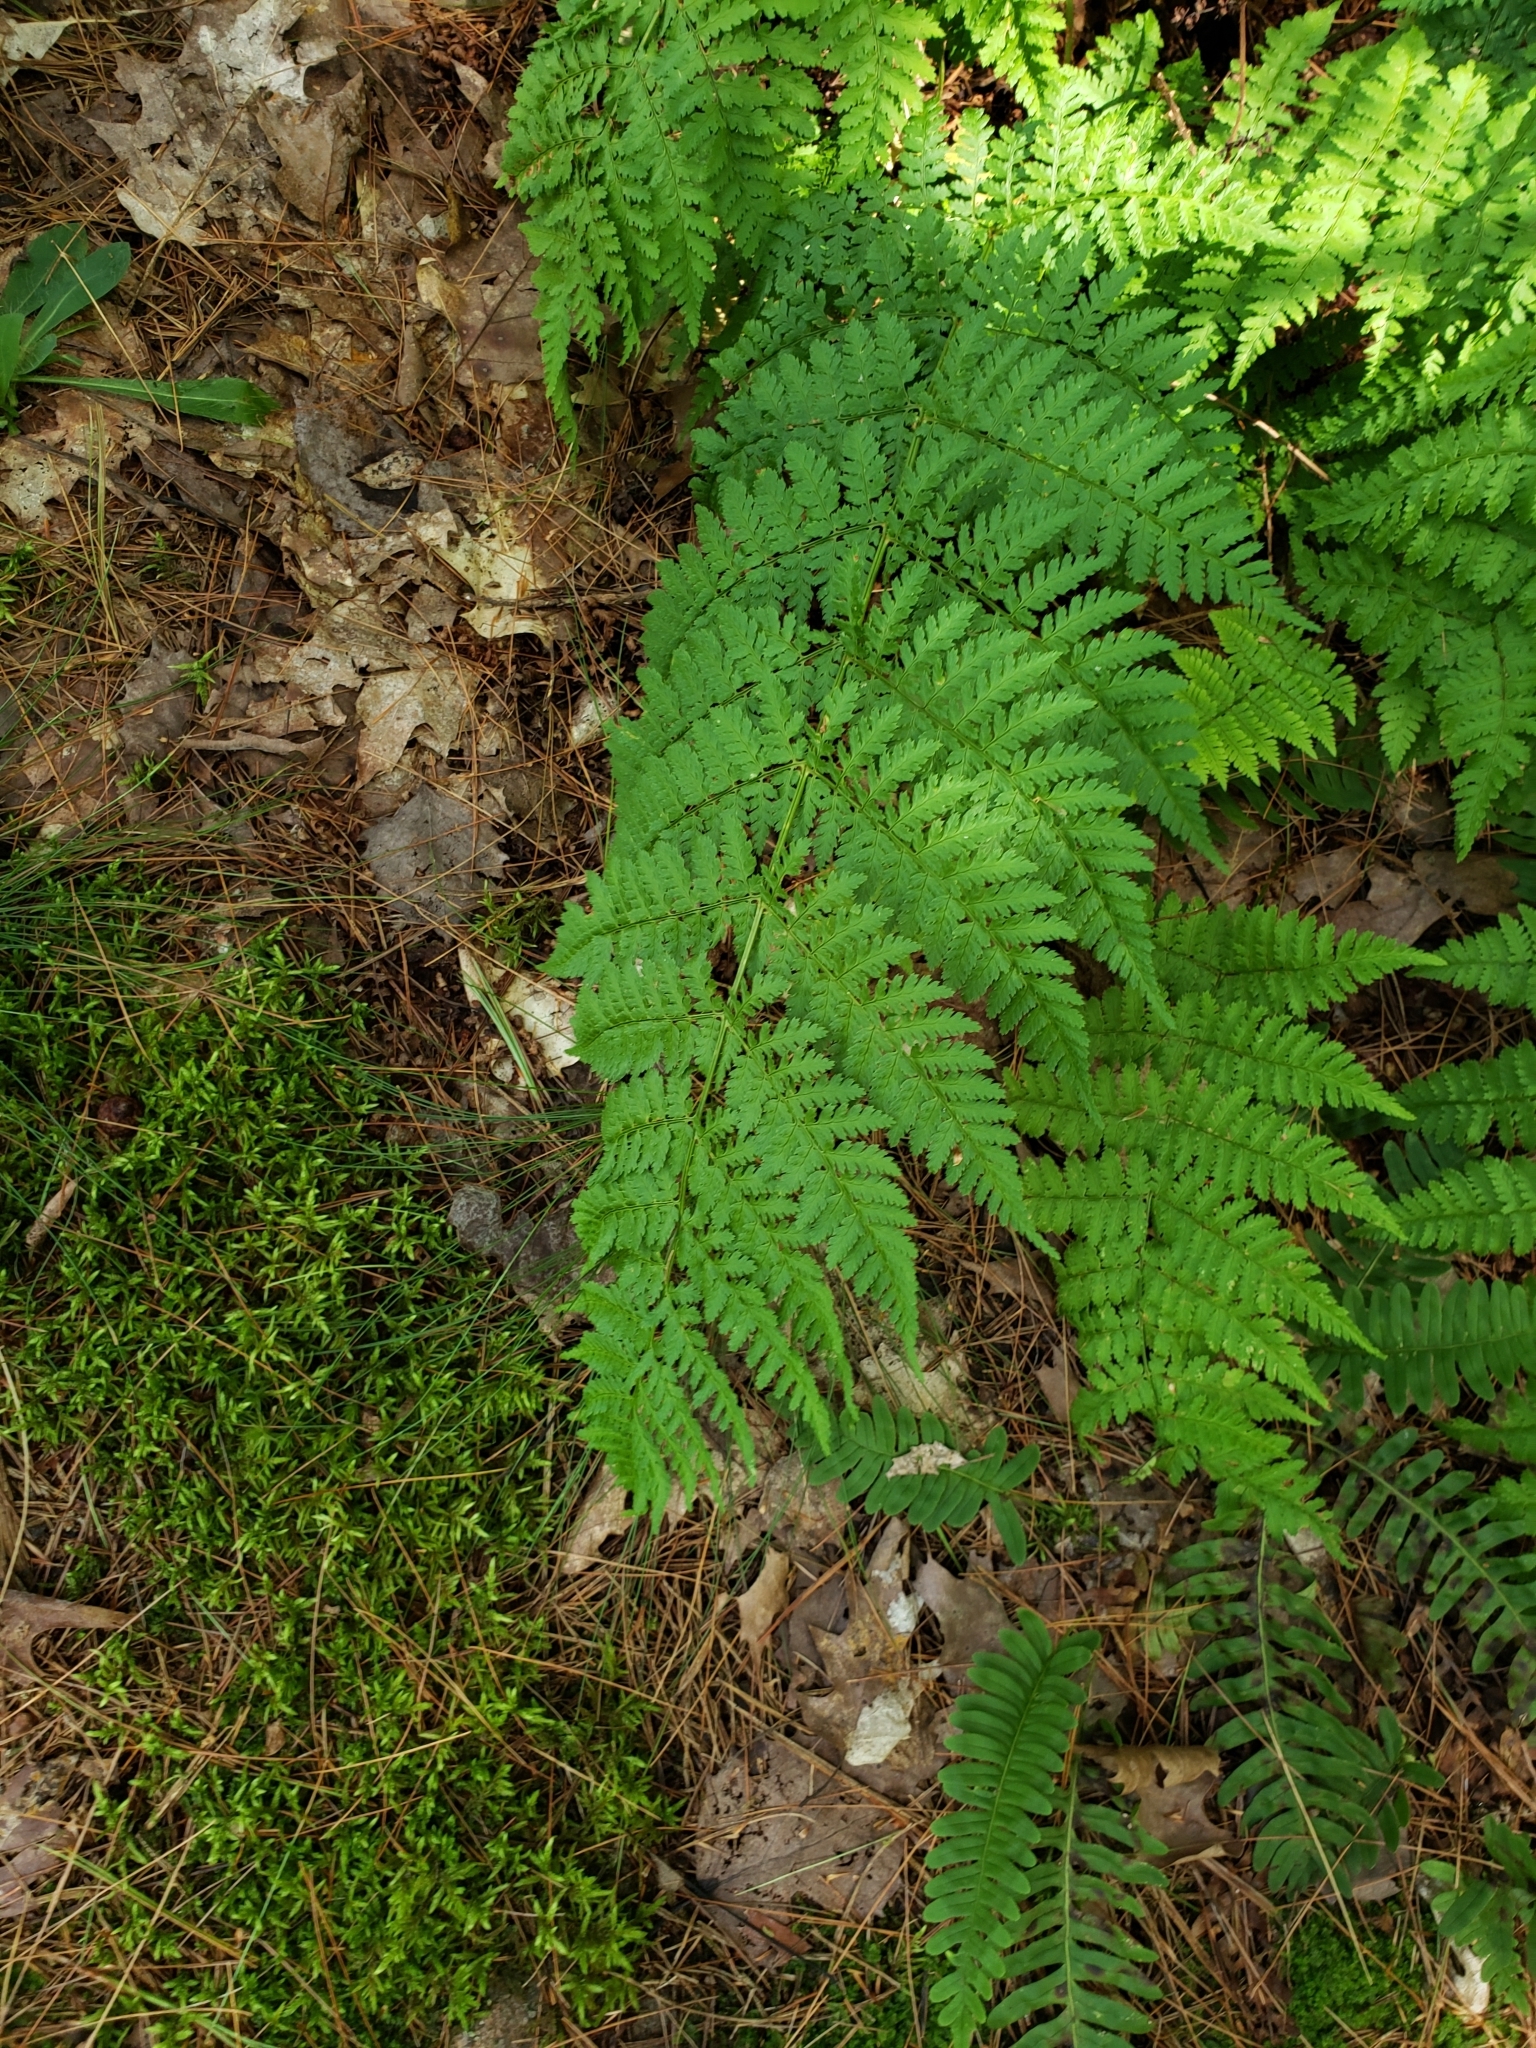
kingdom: Plantae
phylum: Tracheophyta
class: Polypodiopsida
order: Polypodiales
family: Dryopteridaceae
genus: Dryopteris
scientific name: Dryopteris intermedia
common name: Evergreen wood fern
